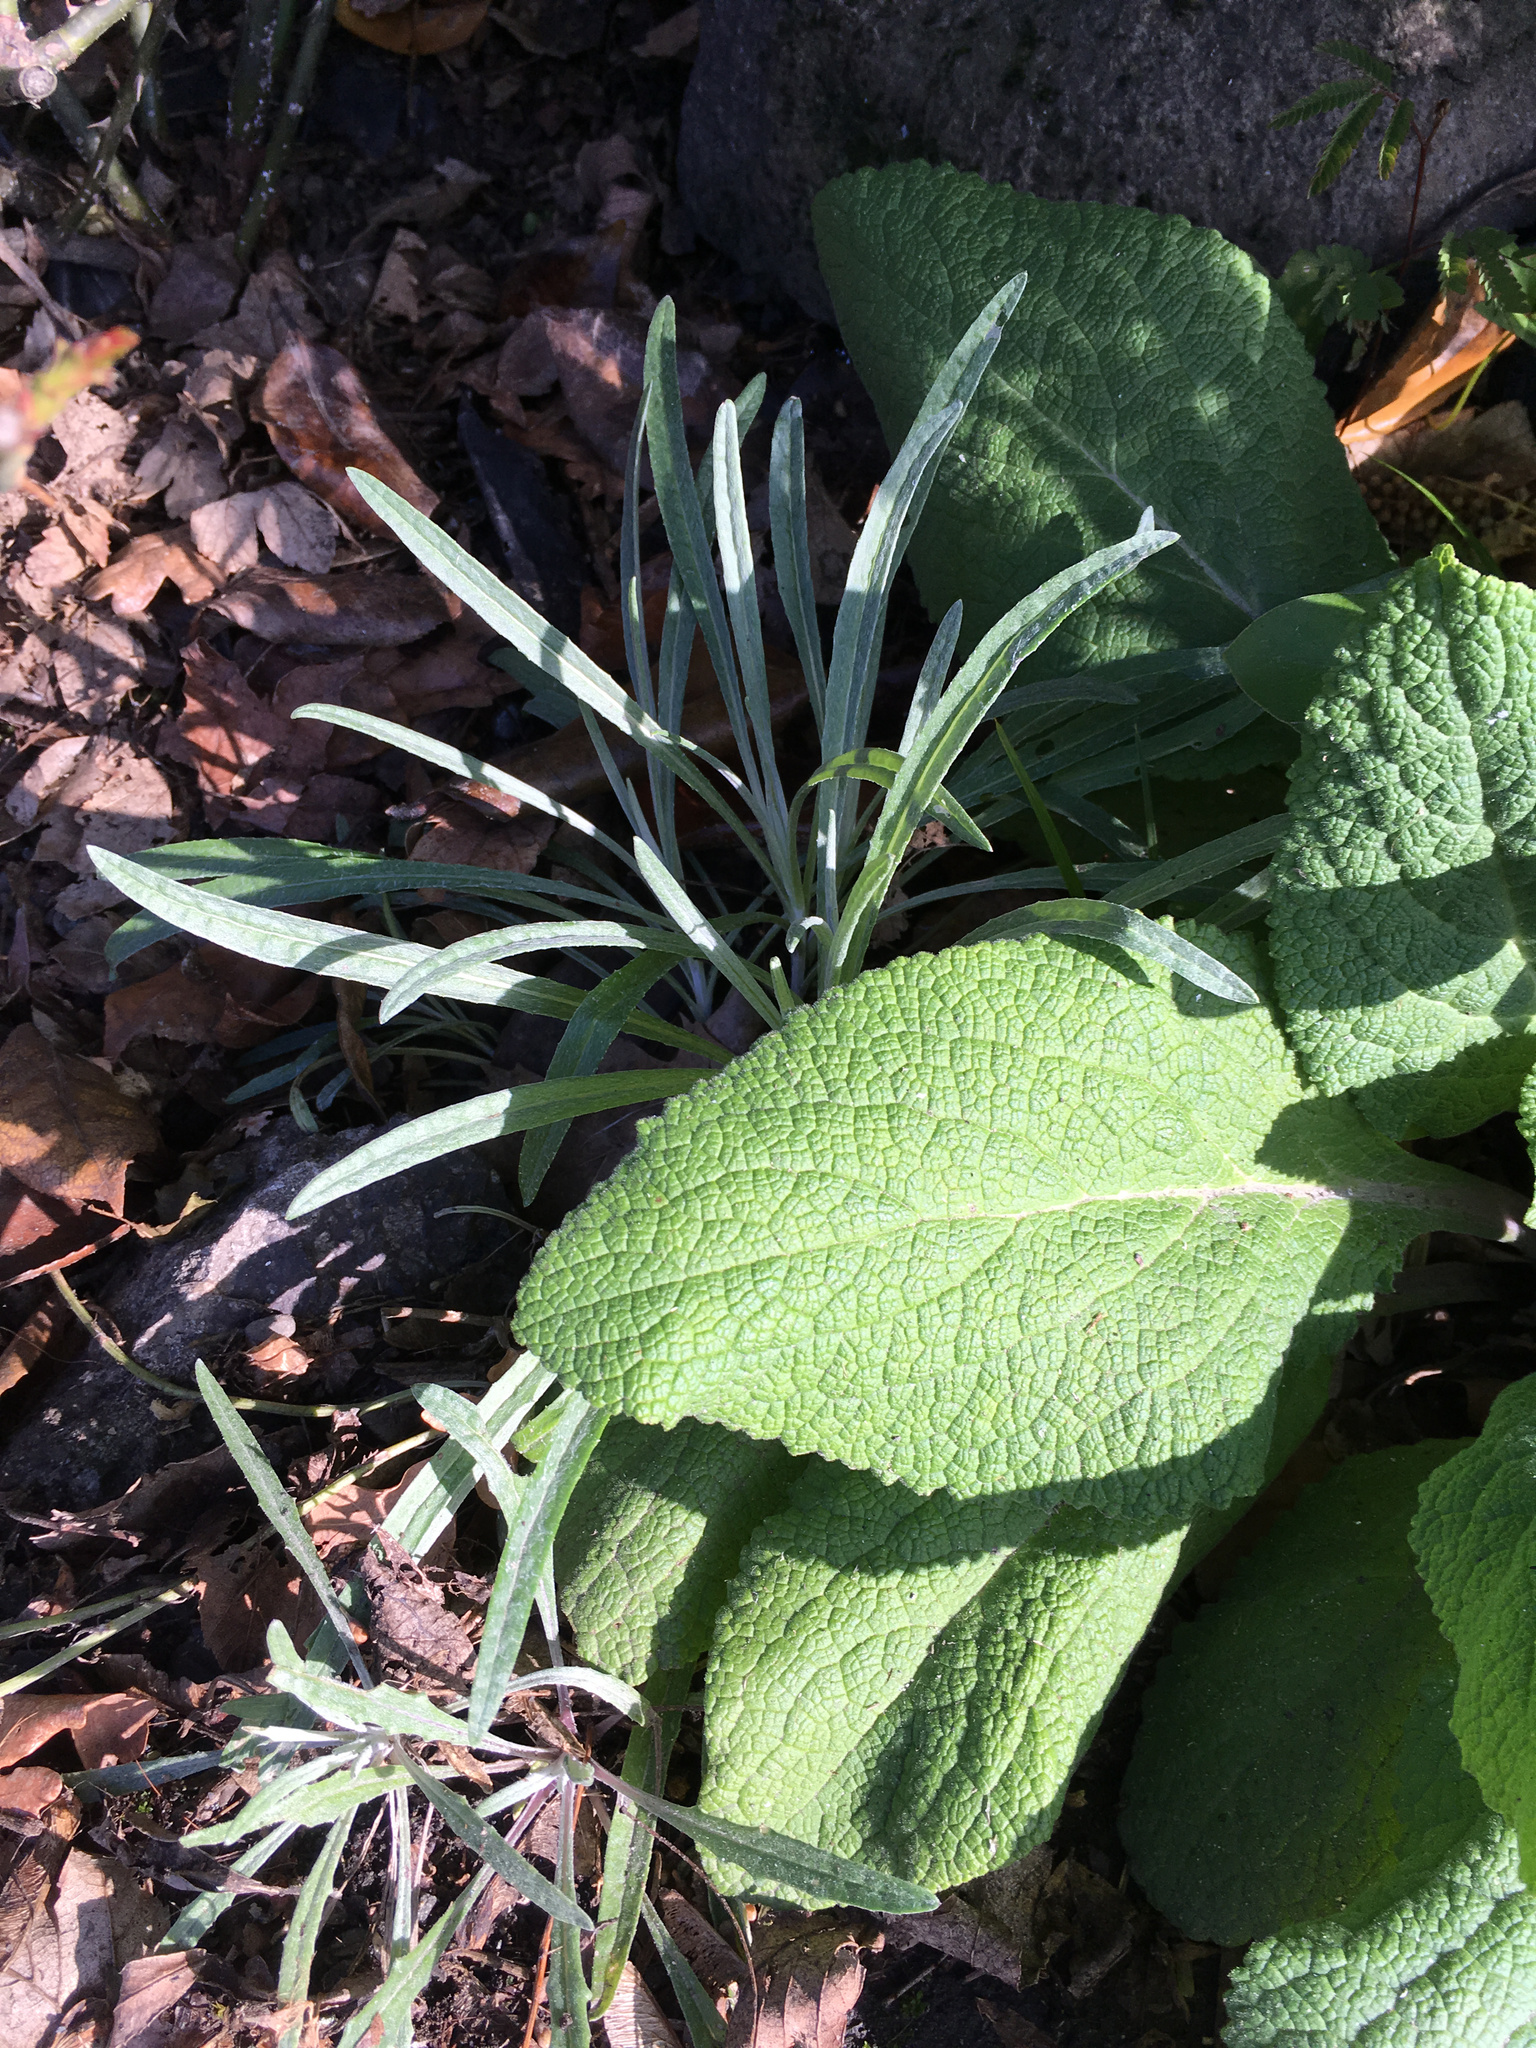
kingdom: Plantae
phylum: Tracheophyta
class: Magnoliopsida
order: Asterales
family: Asteraceae
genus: Senecio
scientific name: Senecio quadridentatus
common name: Cotton fireweed
